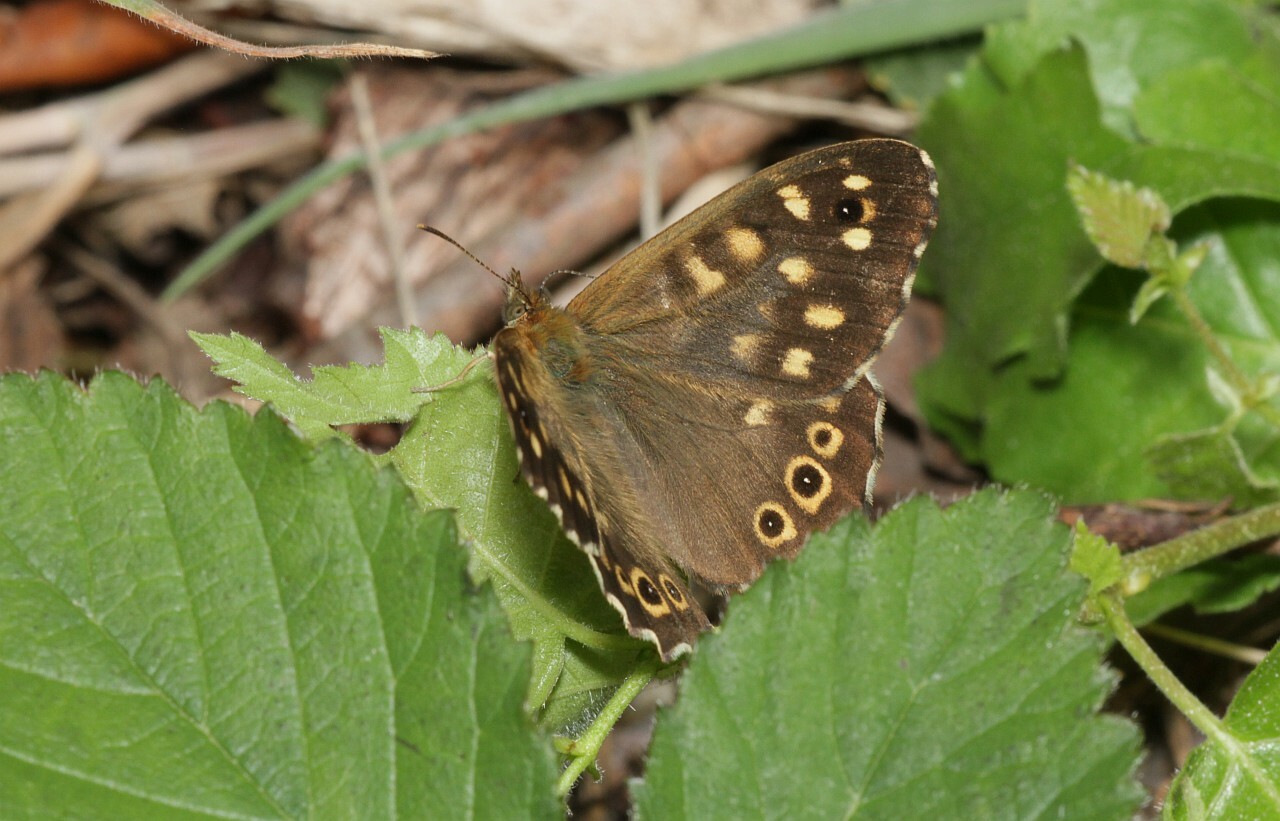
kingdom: Animalia
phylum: Arthropoda
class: Insecta
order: Lepidoptera
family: Nymphalidae
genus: Pararge
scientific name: Pararge aegeria
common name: Speckled wood
